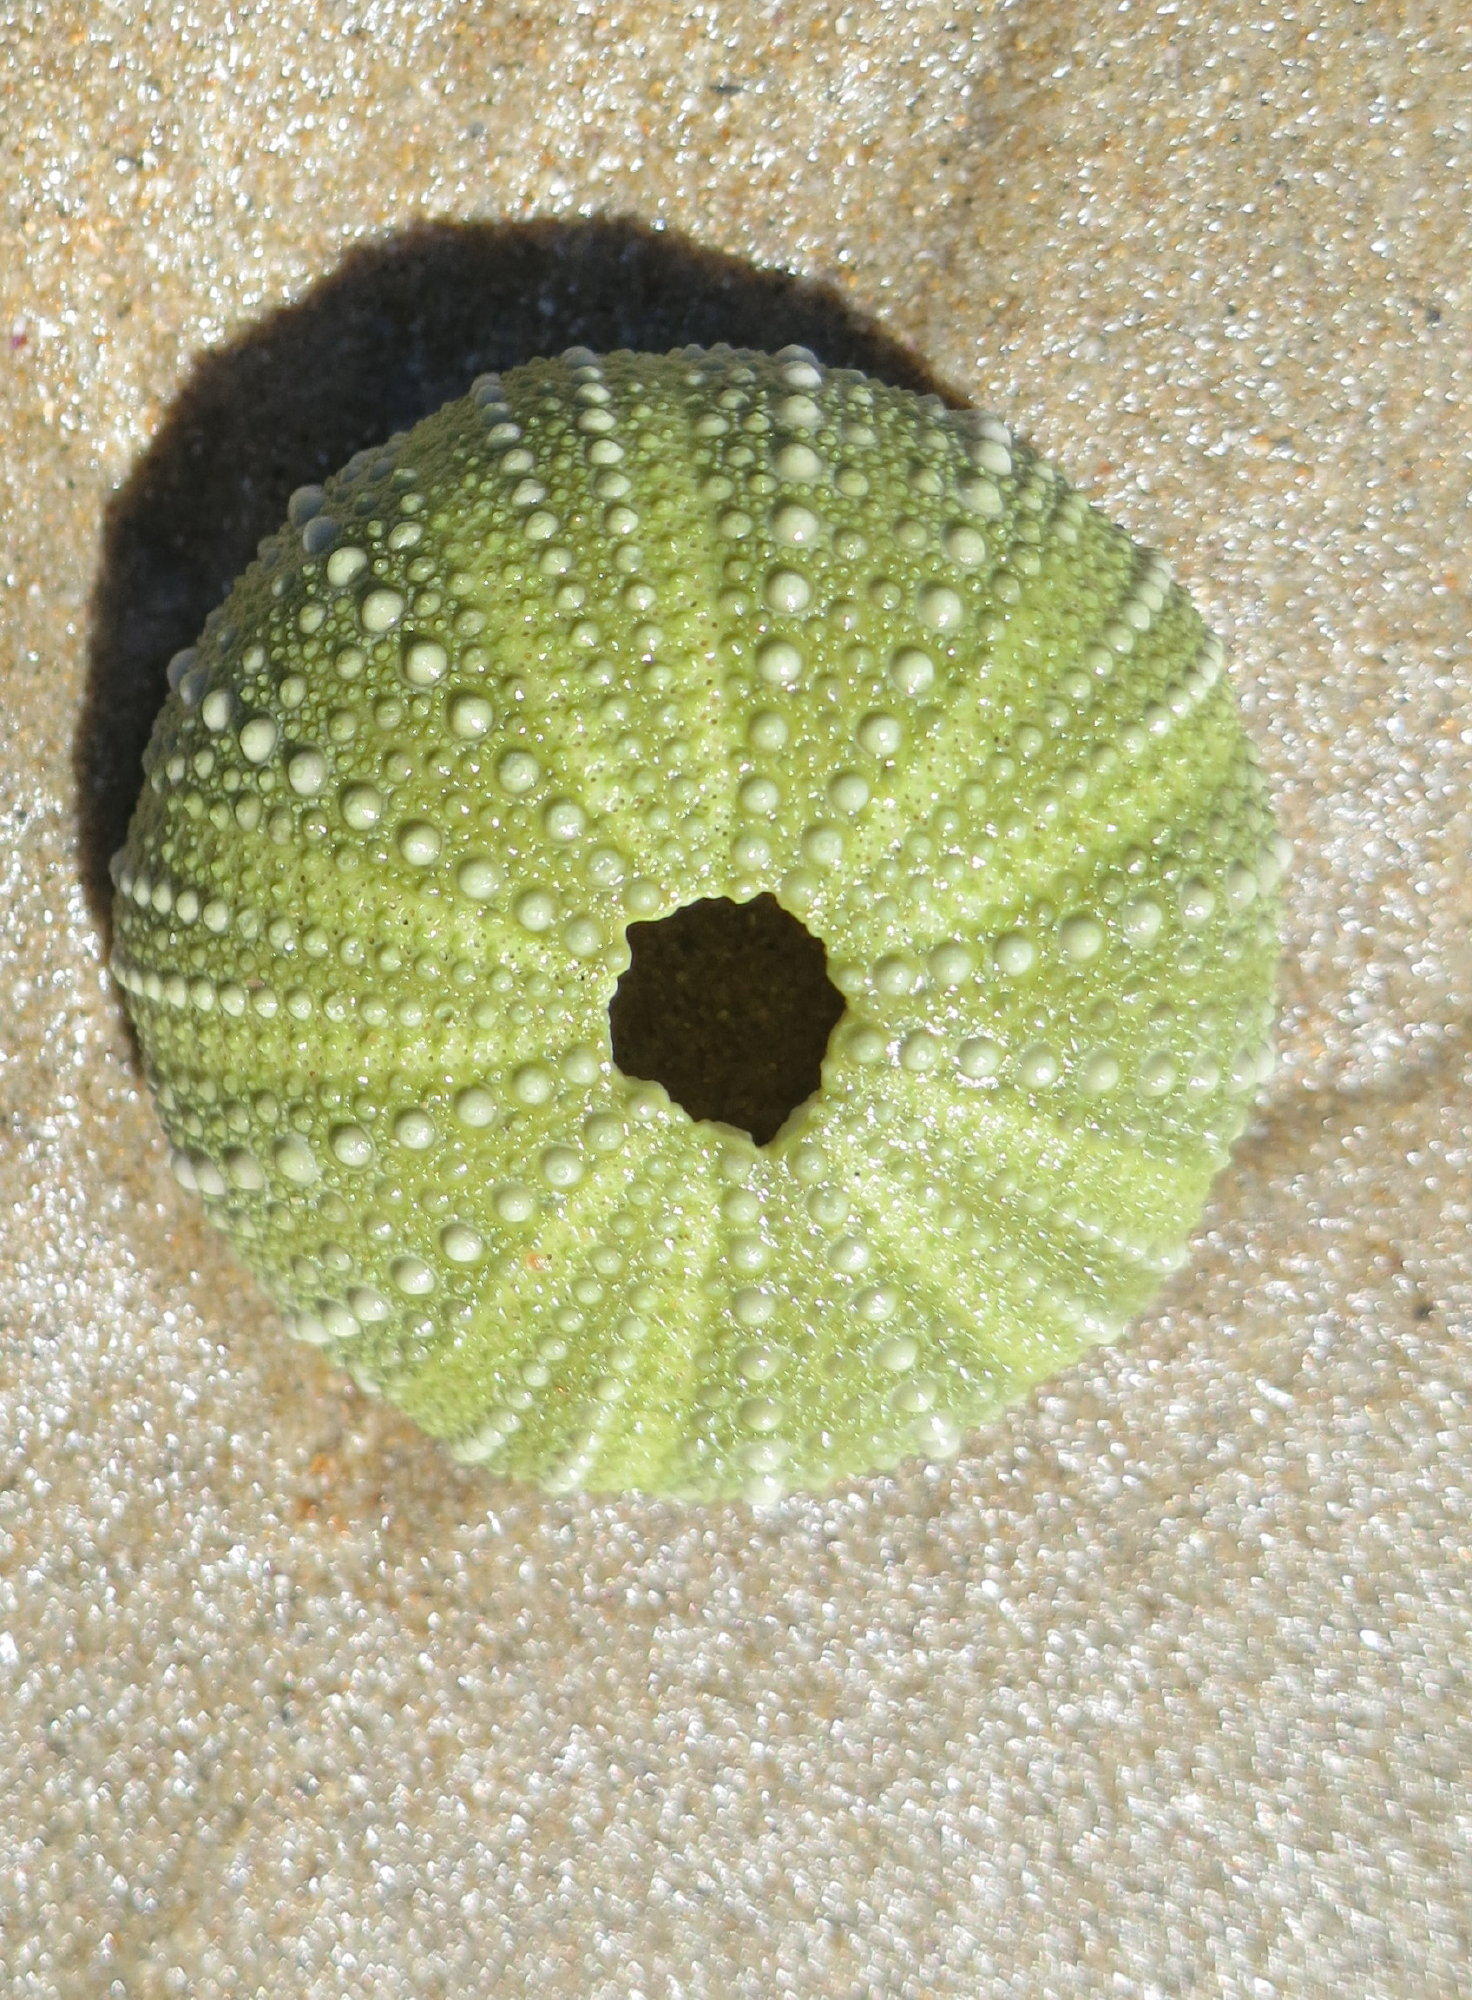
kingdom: Animalia
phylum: Echinodermata
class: Echinoidea
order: Camarodonta
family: Parechinidae
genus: Parechinus
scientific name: Parechinus angulosus
